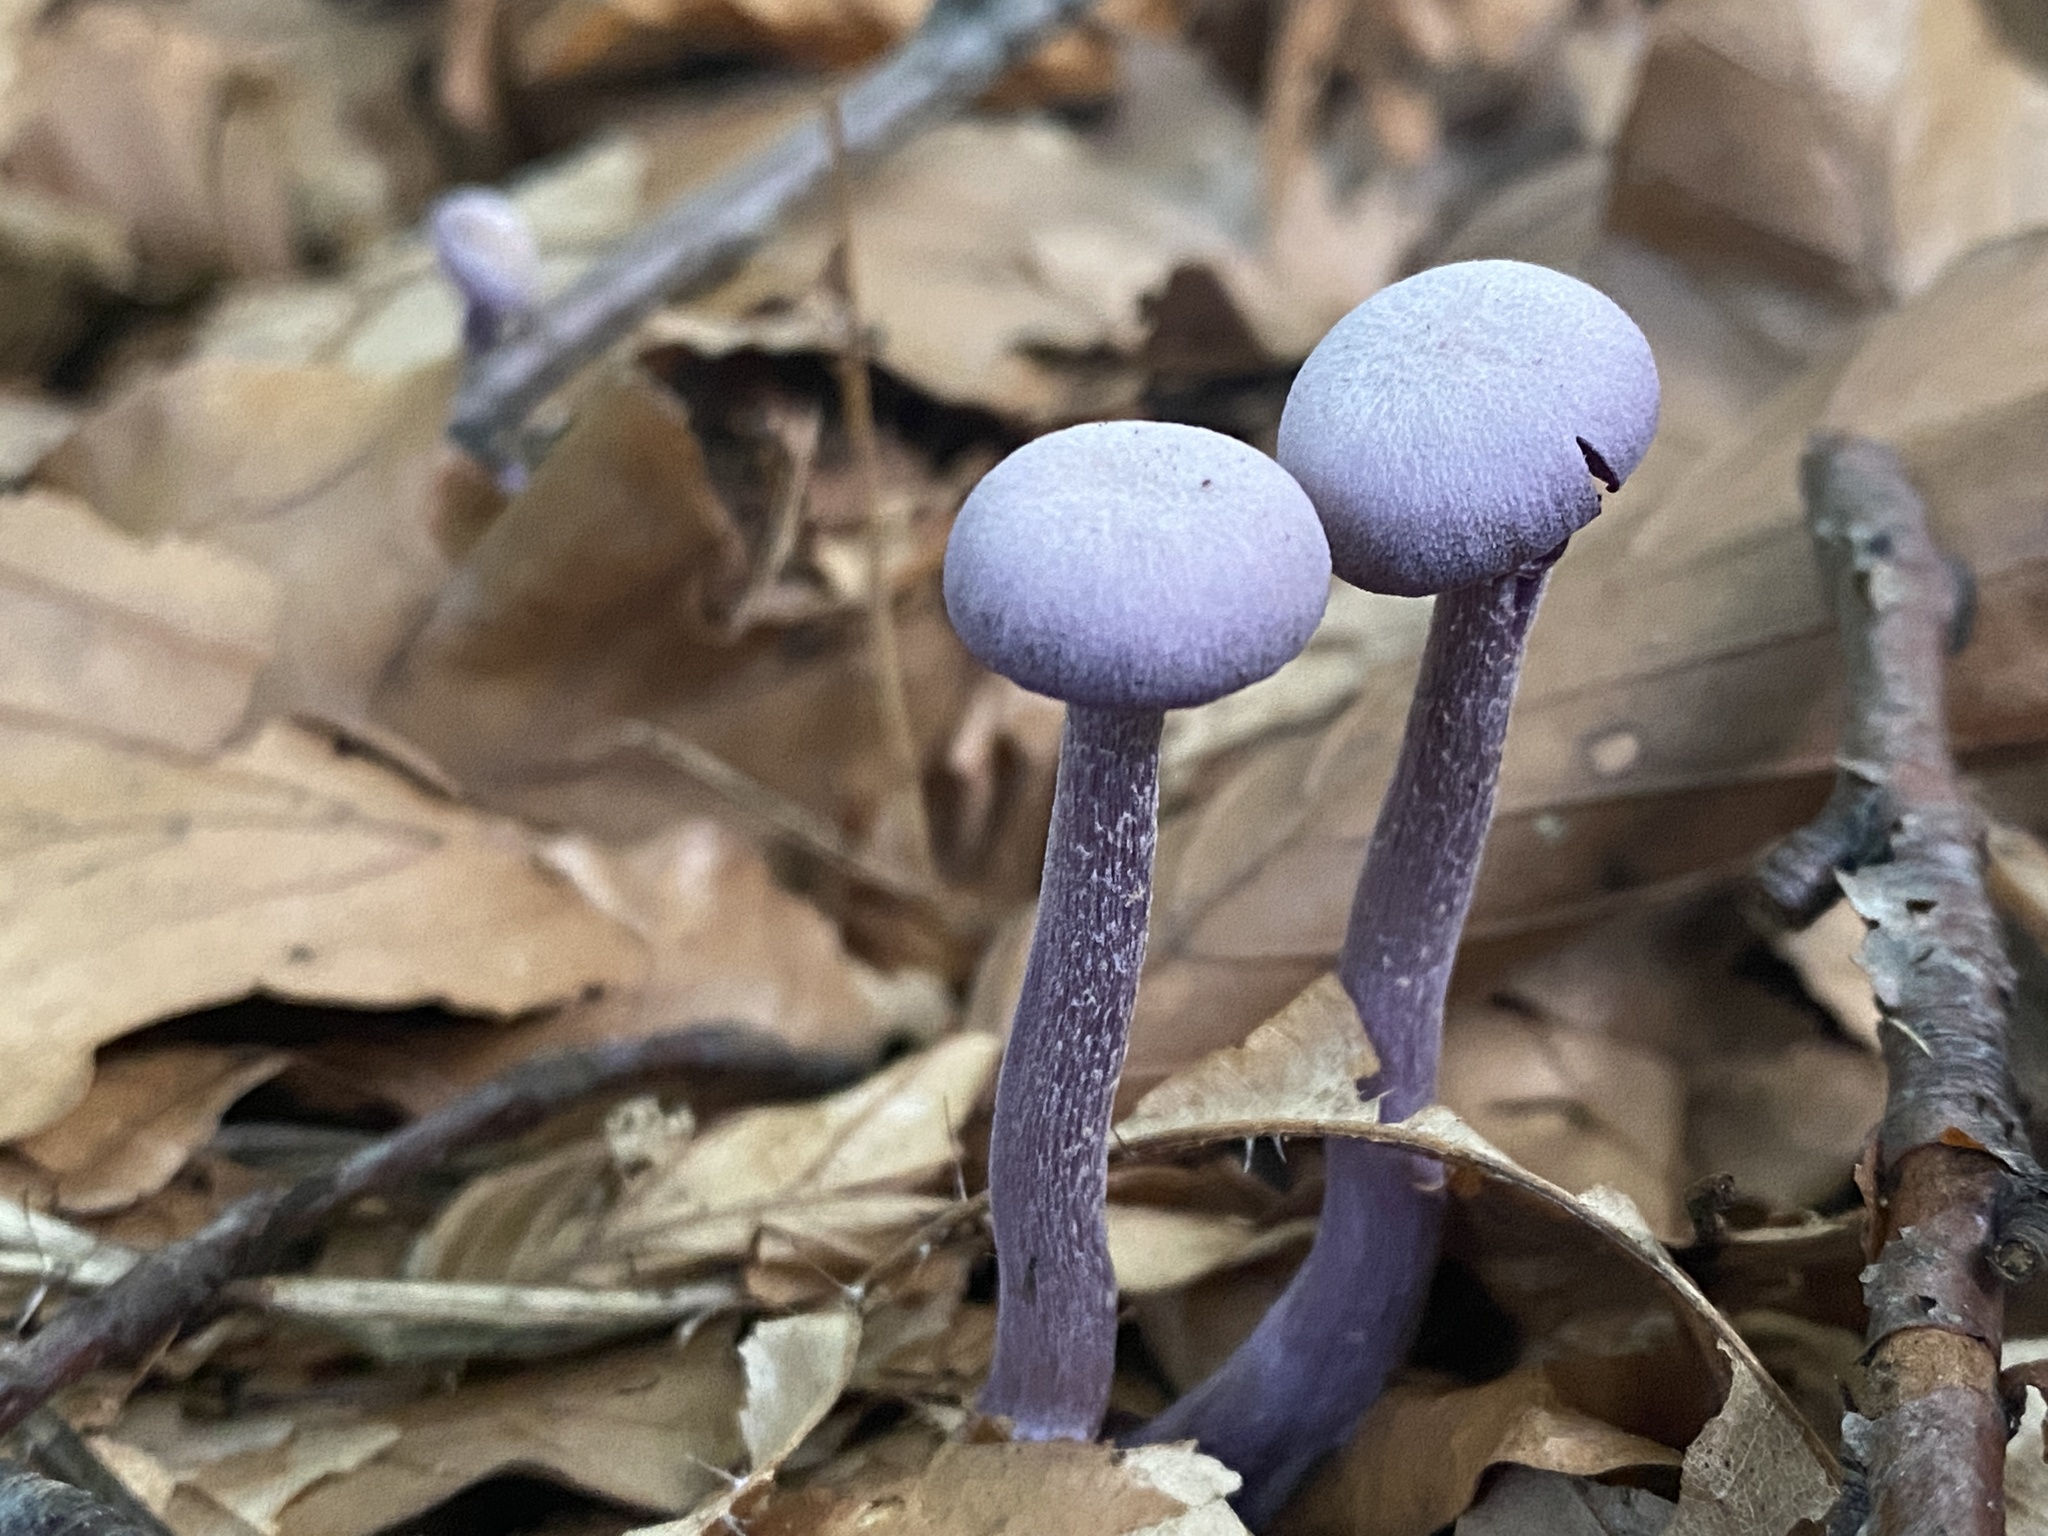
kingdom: Fungi
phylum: Basidiomycota
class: Agaricomycetes
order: Agaricales
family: Hydnangiaceae
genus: Laccaria
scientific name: Laccaria amethystina
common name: Amethyst deceiver
